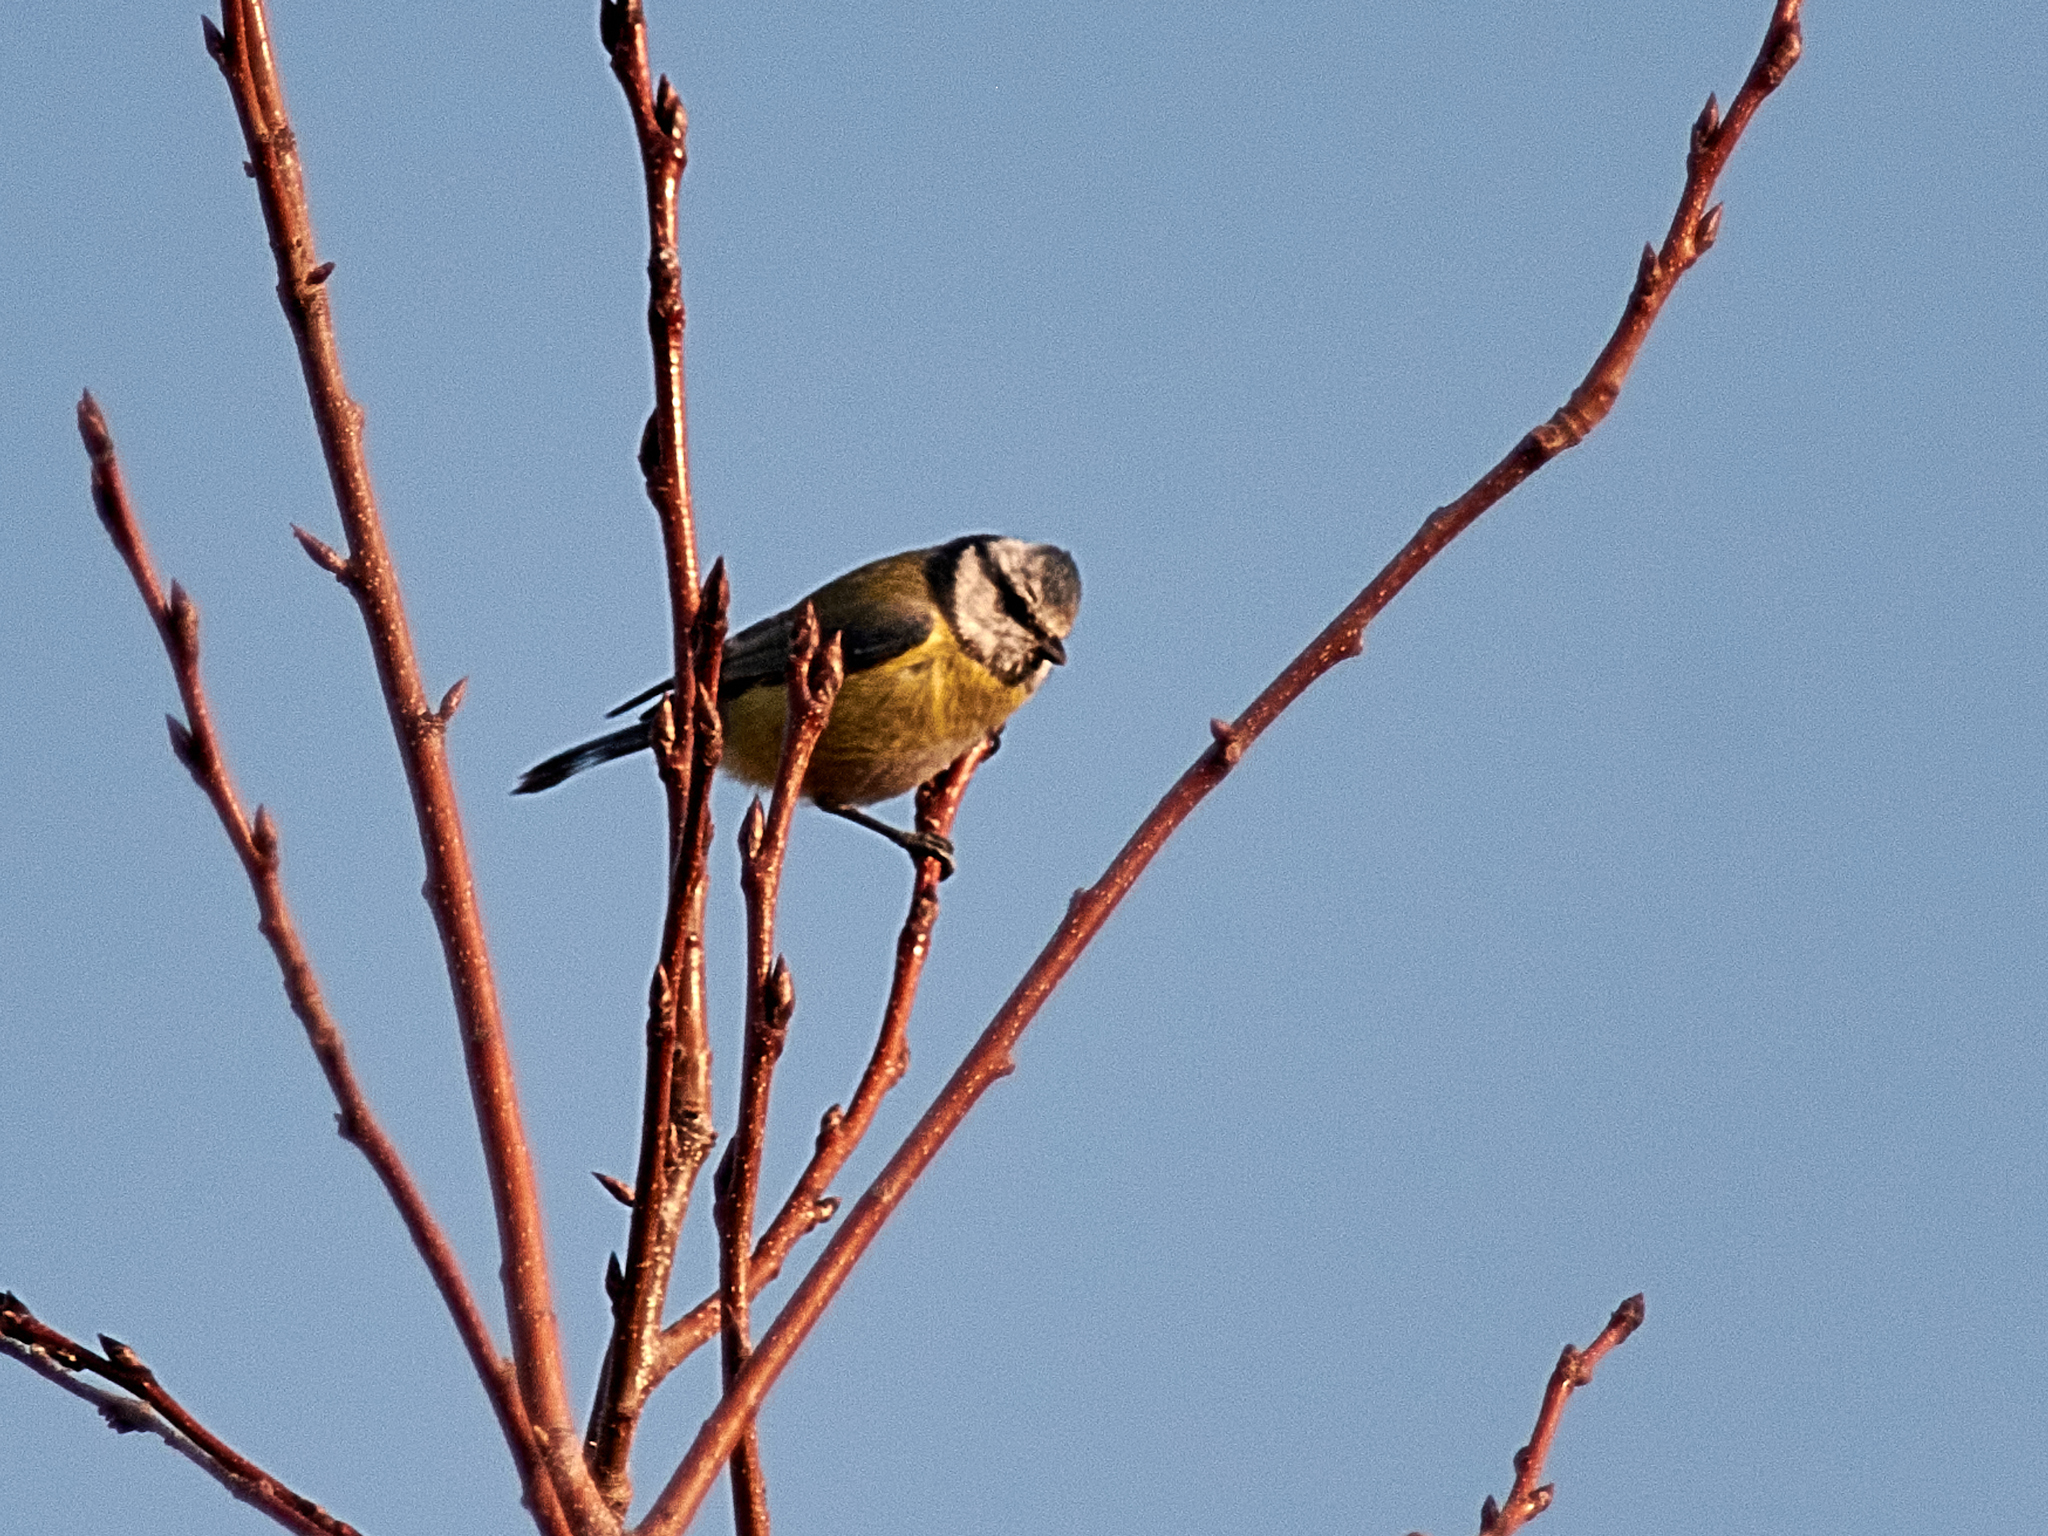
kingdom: Animalia
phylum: Chordata
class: Aves
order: Passeriformes
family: Paridae
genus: Cyanistes
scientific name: Cyanistes caeruleus
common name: Eurasian blue tit
